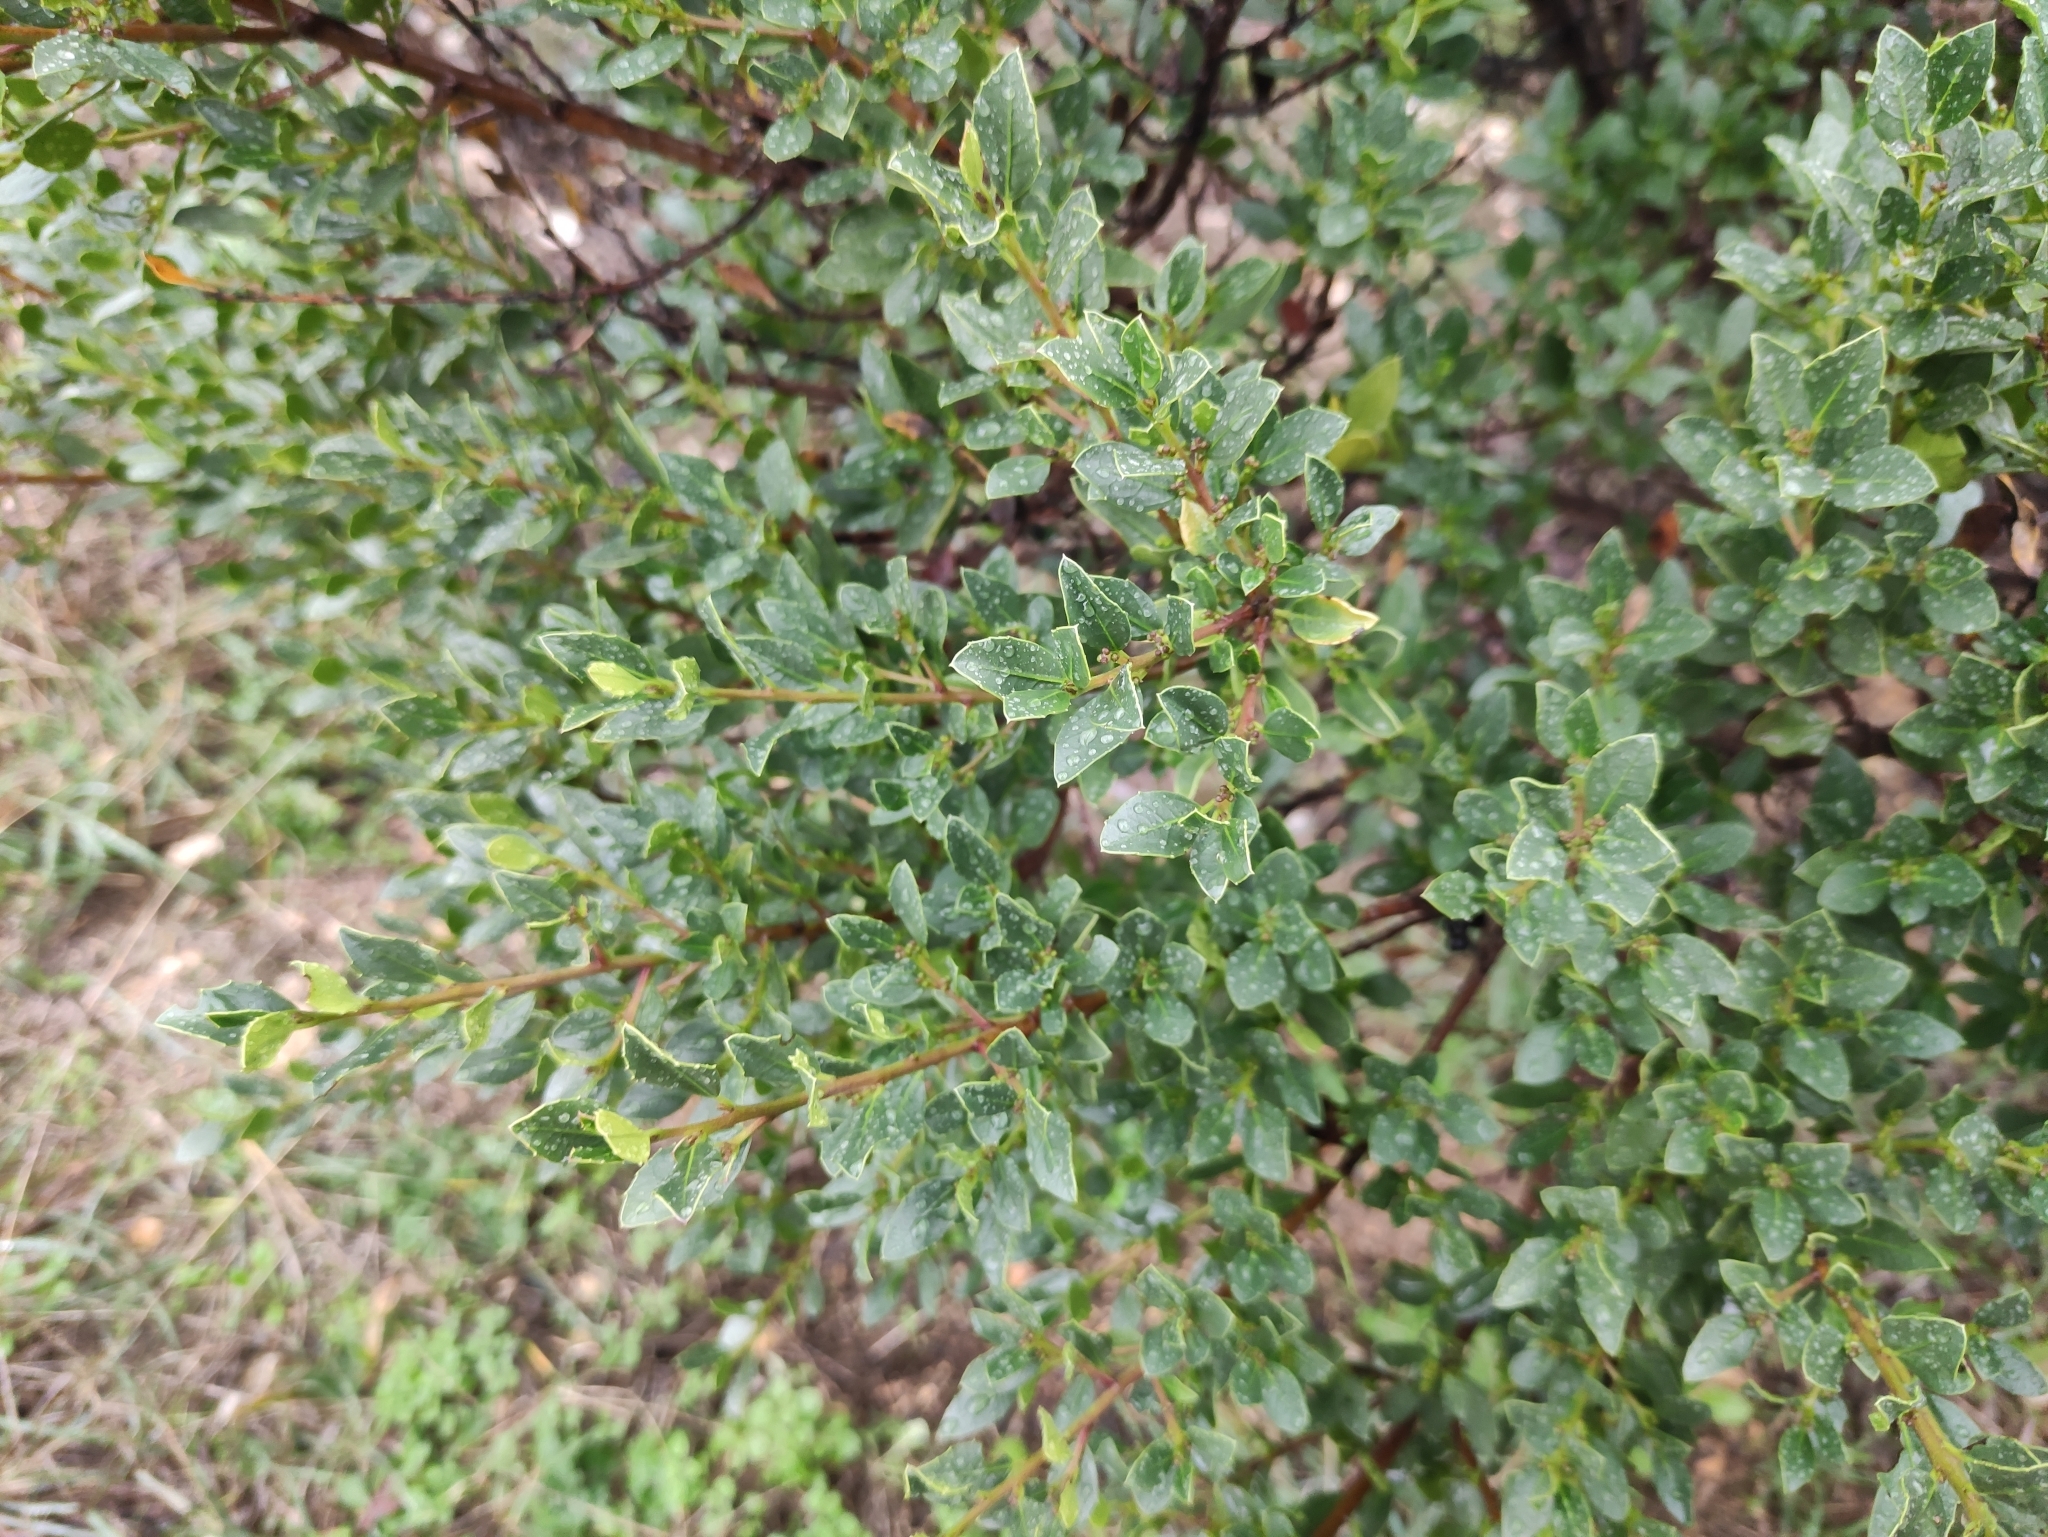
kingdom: Plantae
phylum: Tracheophyta
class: Magnoliopsida
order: Rosales
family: Rhamnaceae
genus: Rhamnus
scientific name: Rhamnus alaternus
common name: Mediterranean buckthorn
